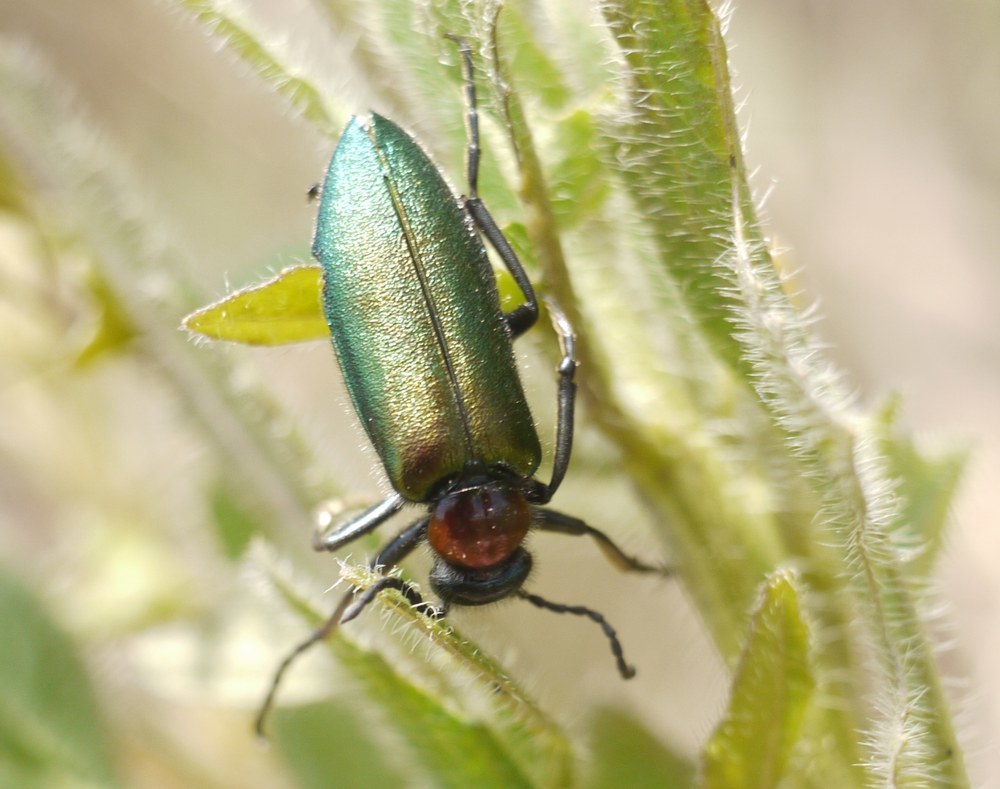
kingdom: Animalia
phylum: Arthropoda
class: Insecta
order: Coleoptera
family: Meloidae
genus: Alosimus
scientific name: Alosimus syriacus
